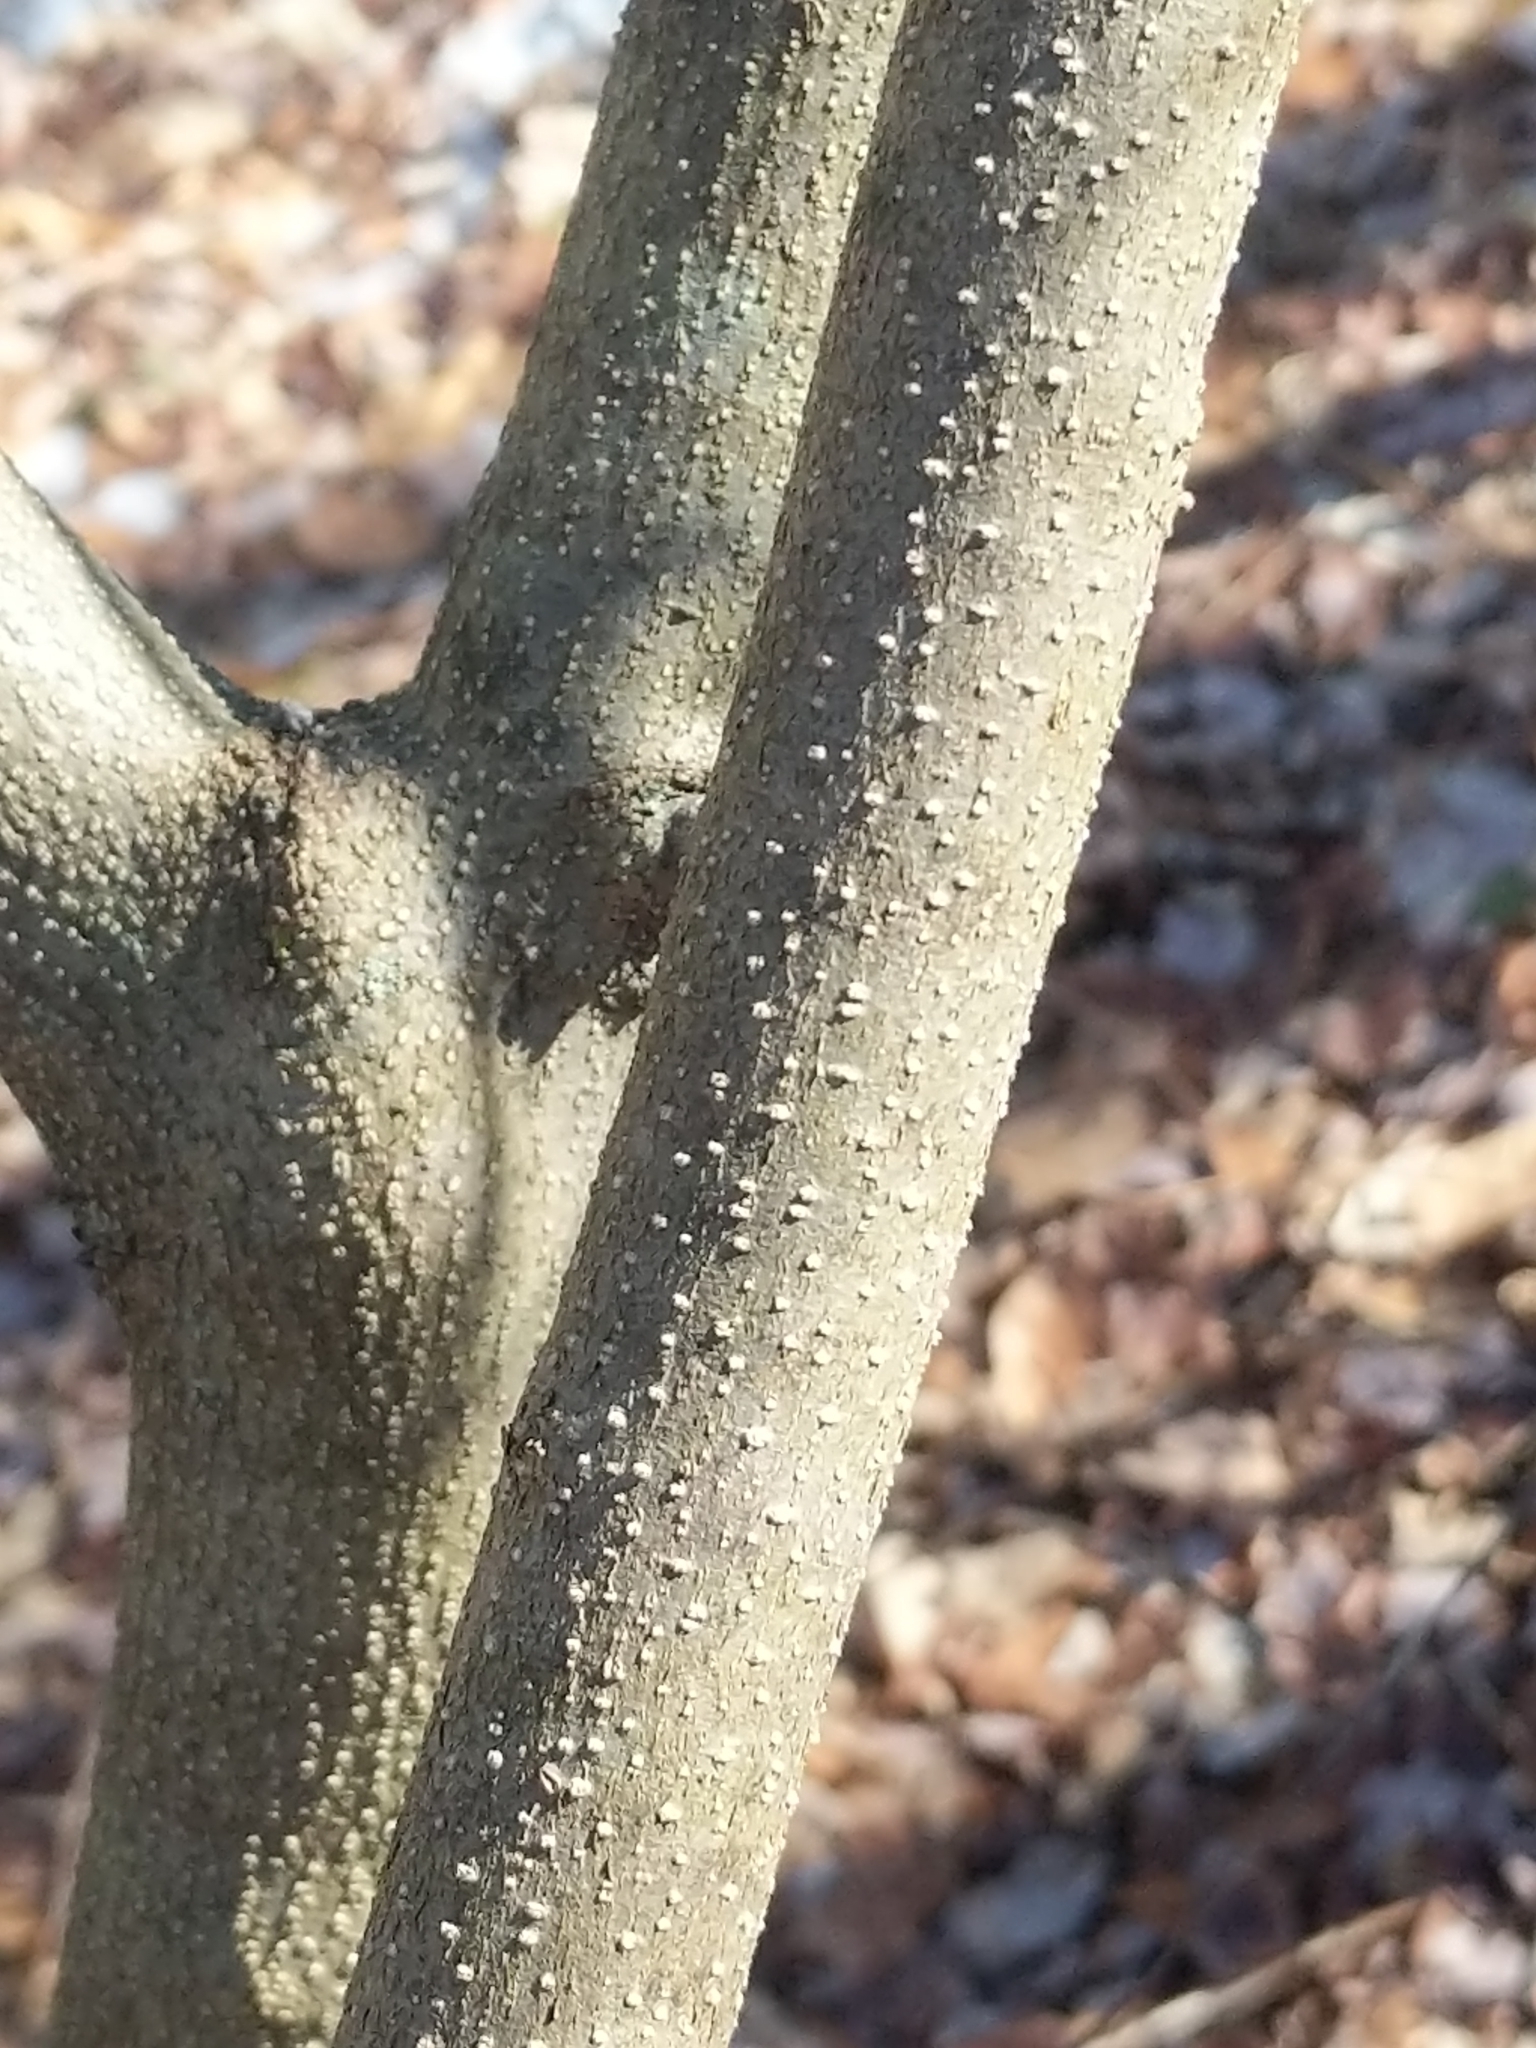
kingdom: Plantae
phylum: Tracheophyta
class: Magnoliopsida
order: Laurales
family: Lauraceae
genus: Lindera
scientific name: Lindera benzoin
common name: Spicebush
